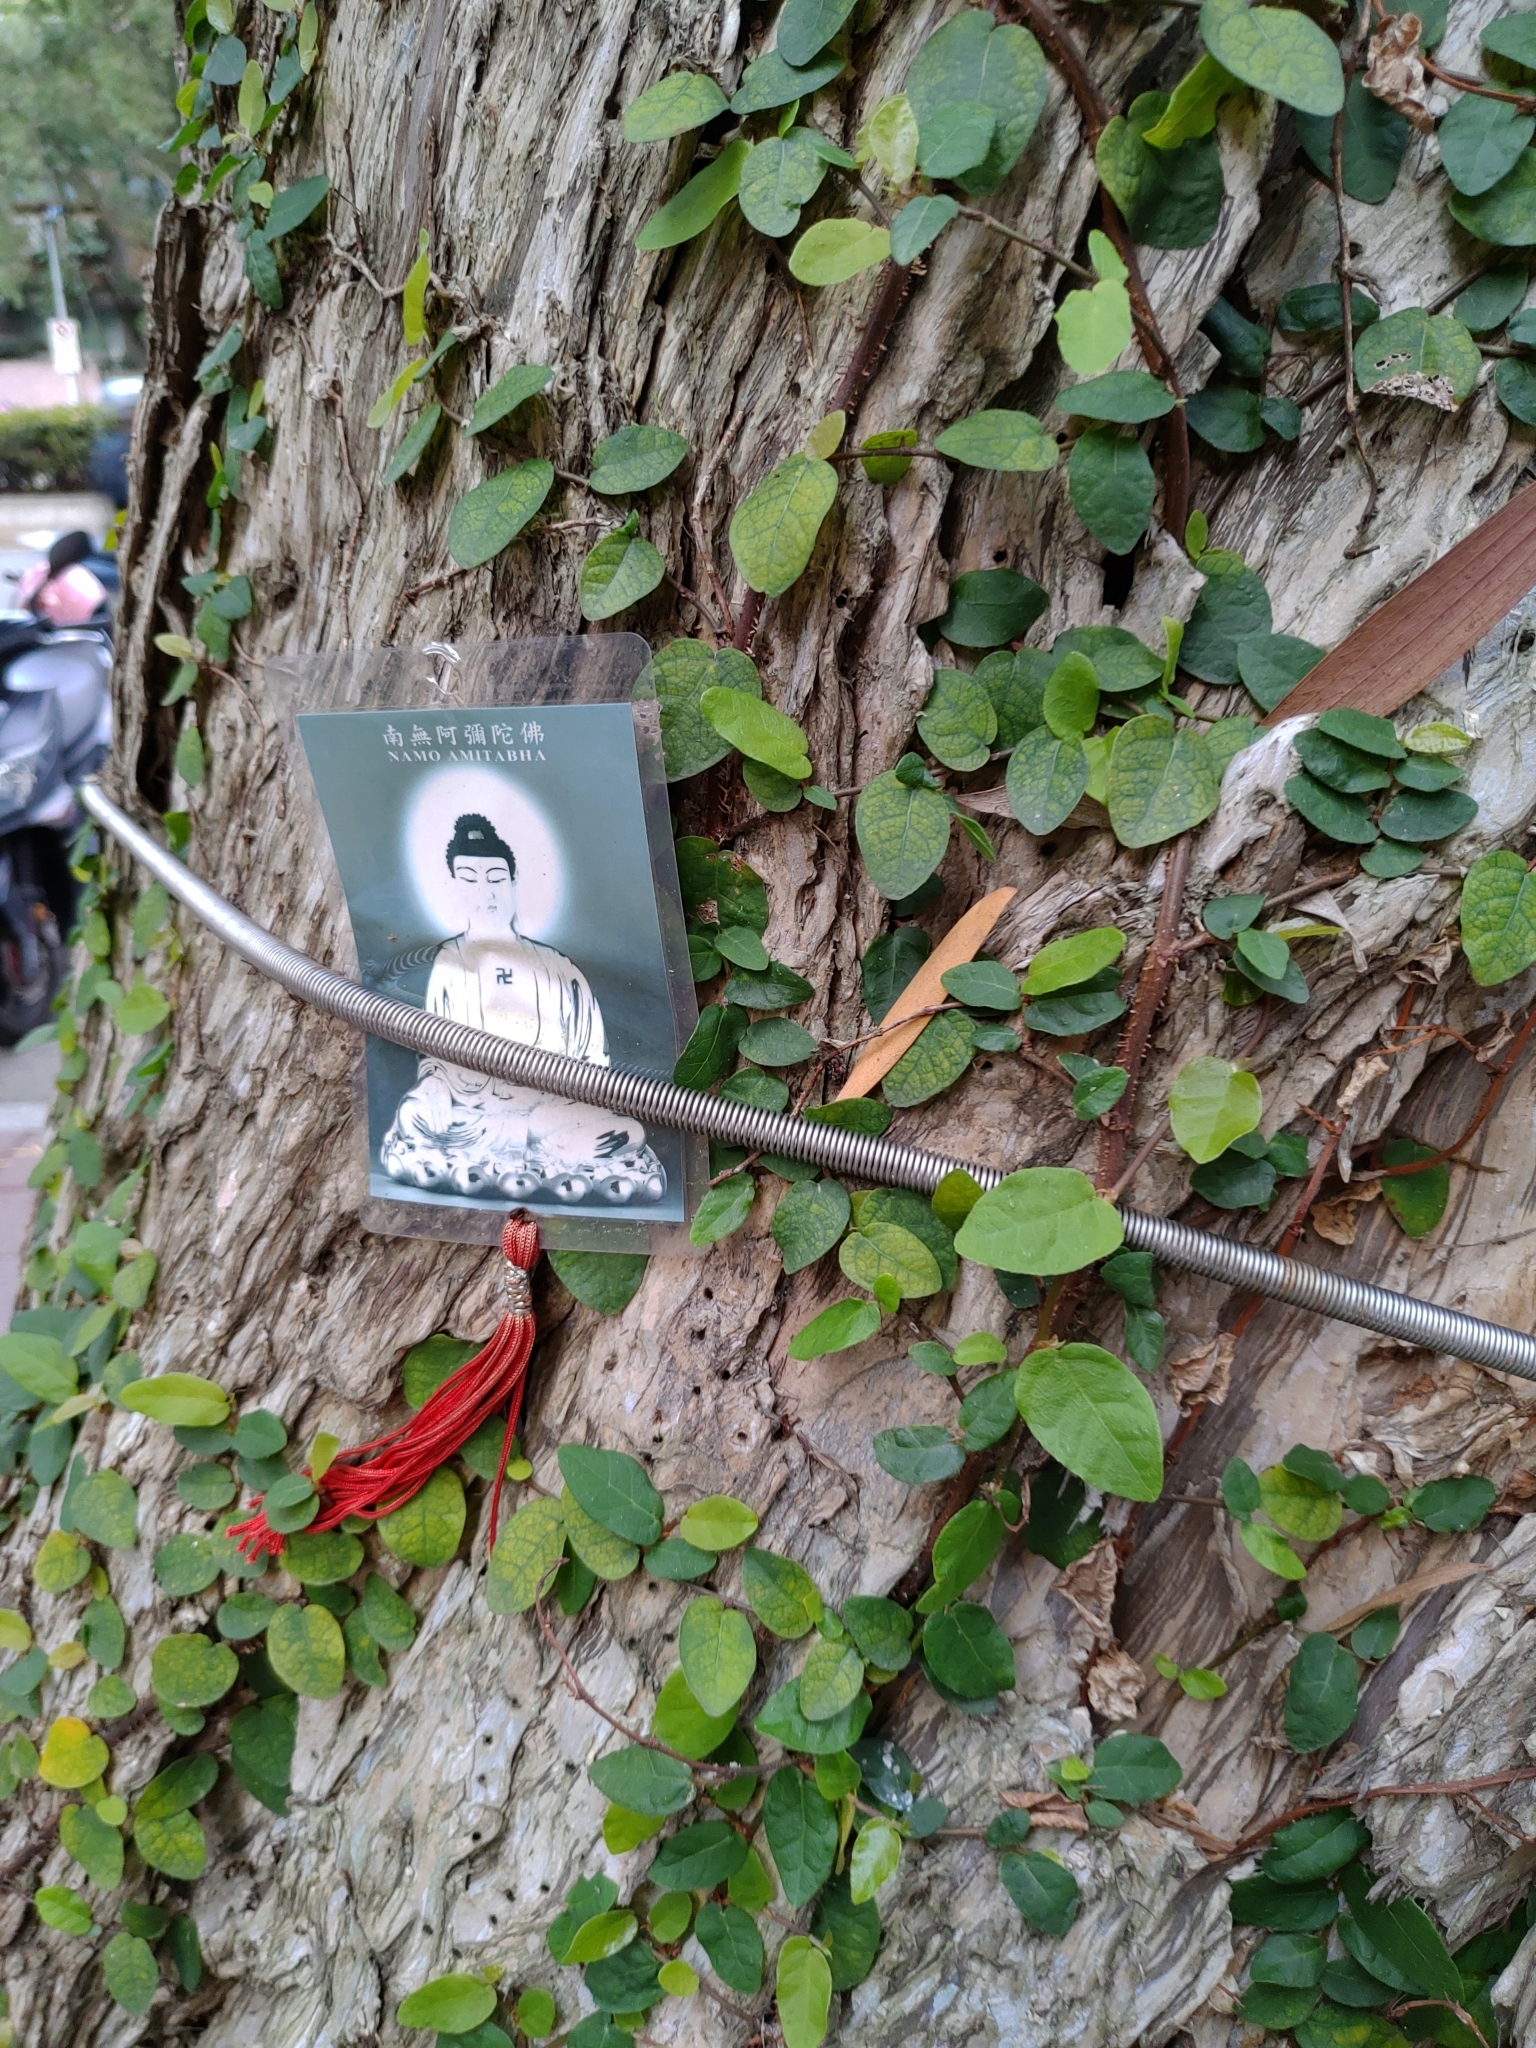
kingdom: Plantae
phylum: Tracheophyta
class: Magnoliopsida
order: Rosales
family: Moraceae
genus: Ficus
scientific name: Ficus pumila
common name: Climbingfig
